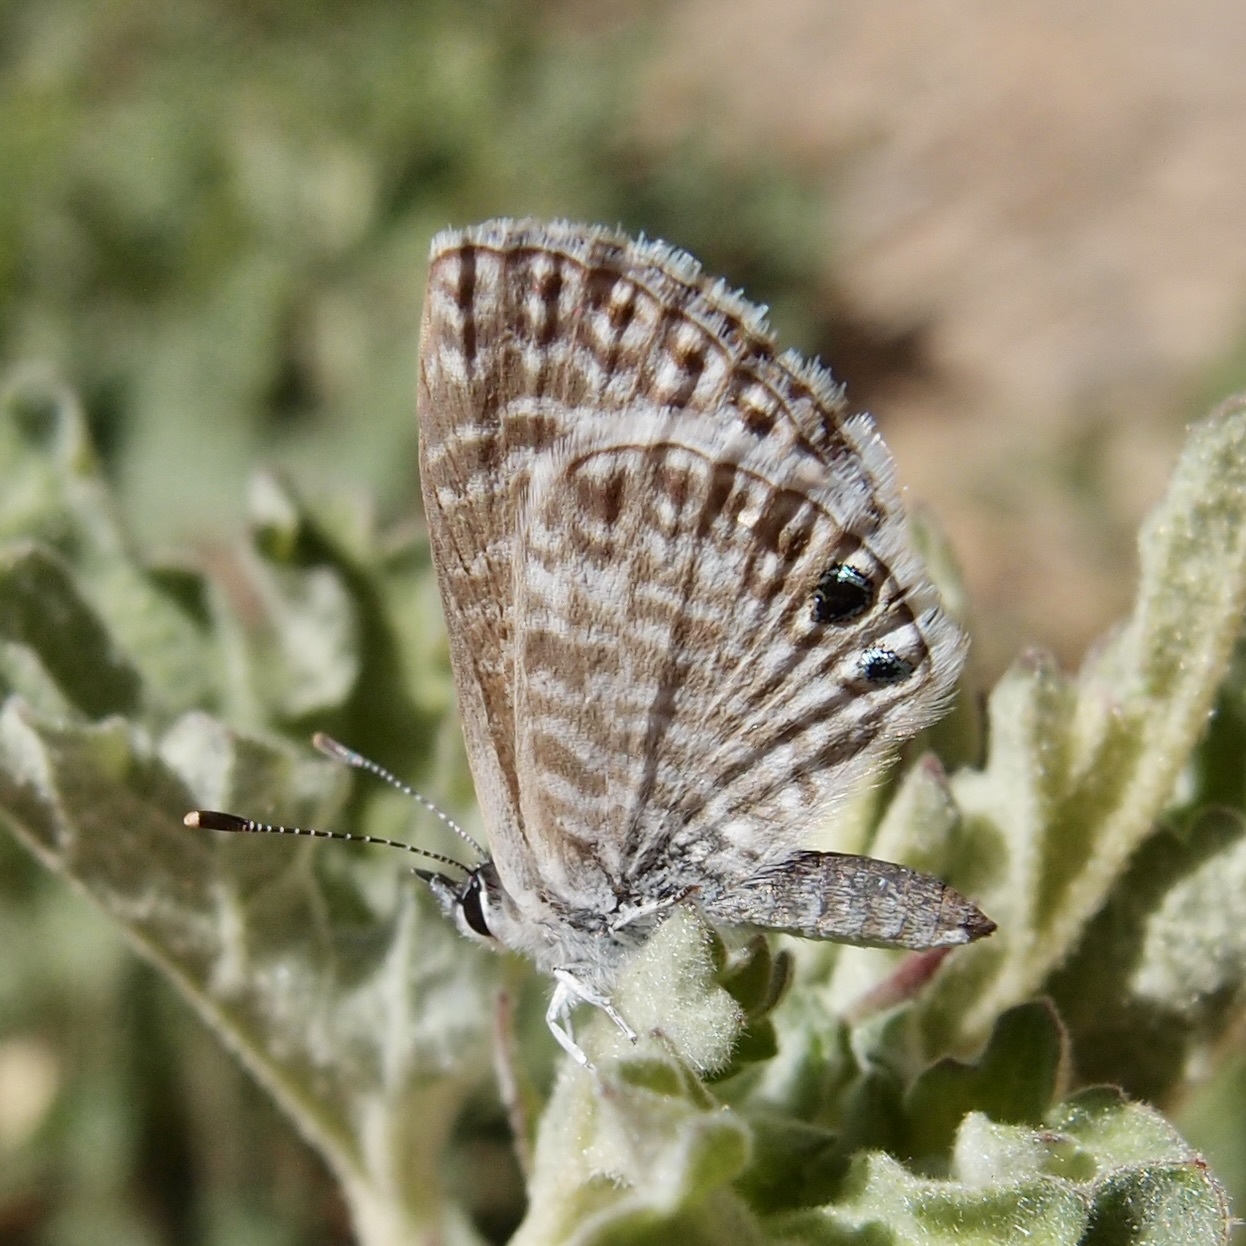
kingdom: Animalia
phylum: Arthropoda
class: Insecta
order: Lepidoptera
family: Lycaenidae
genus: Leptotes
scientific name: Leptotes marina
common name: Marine blue
